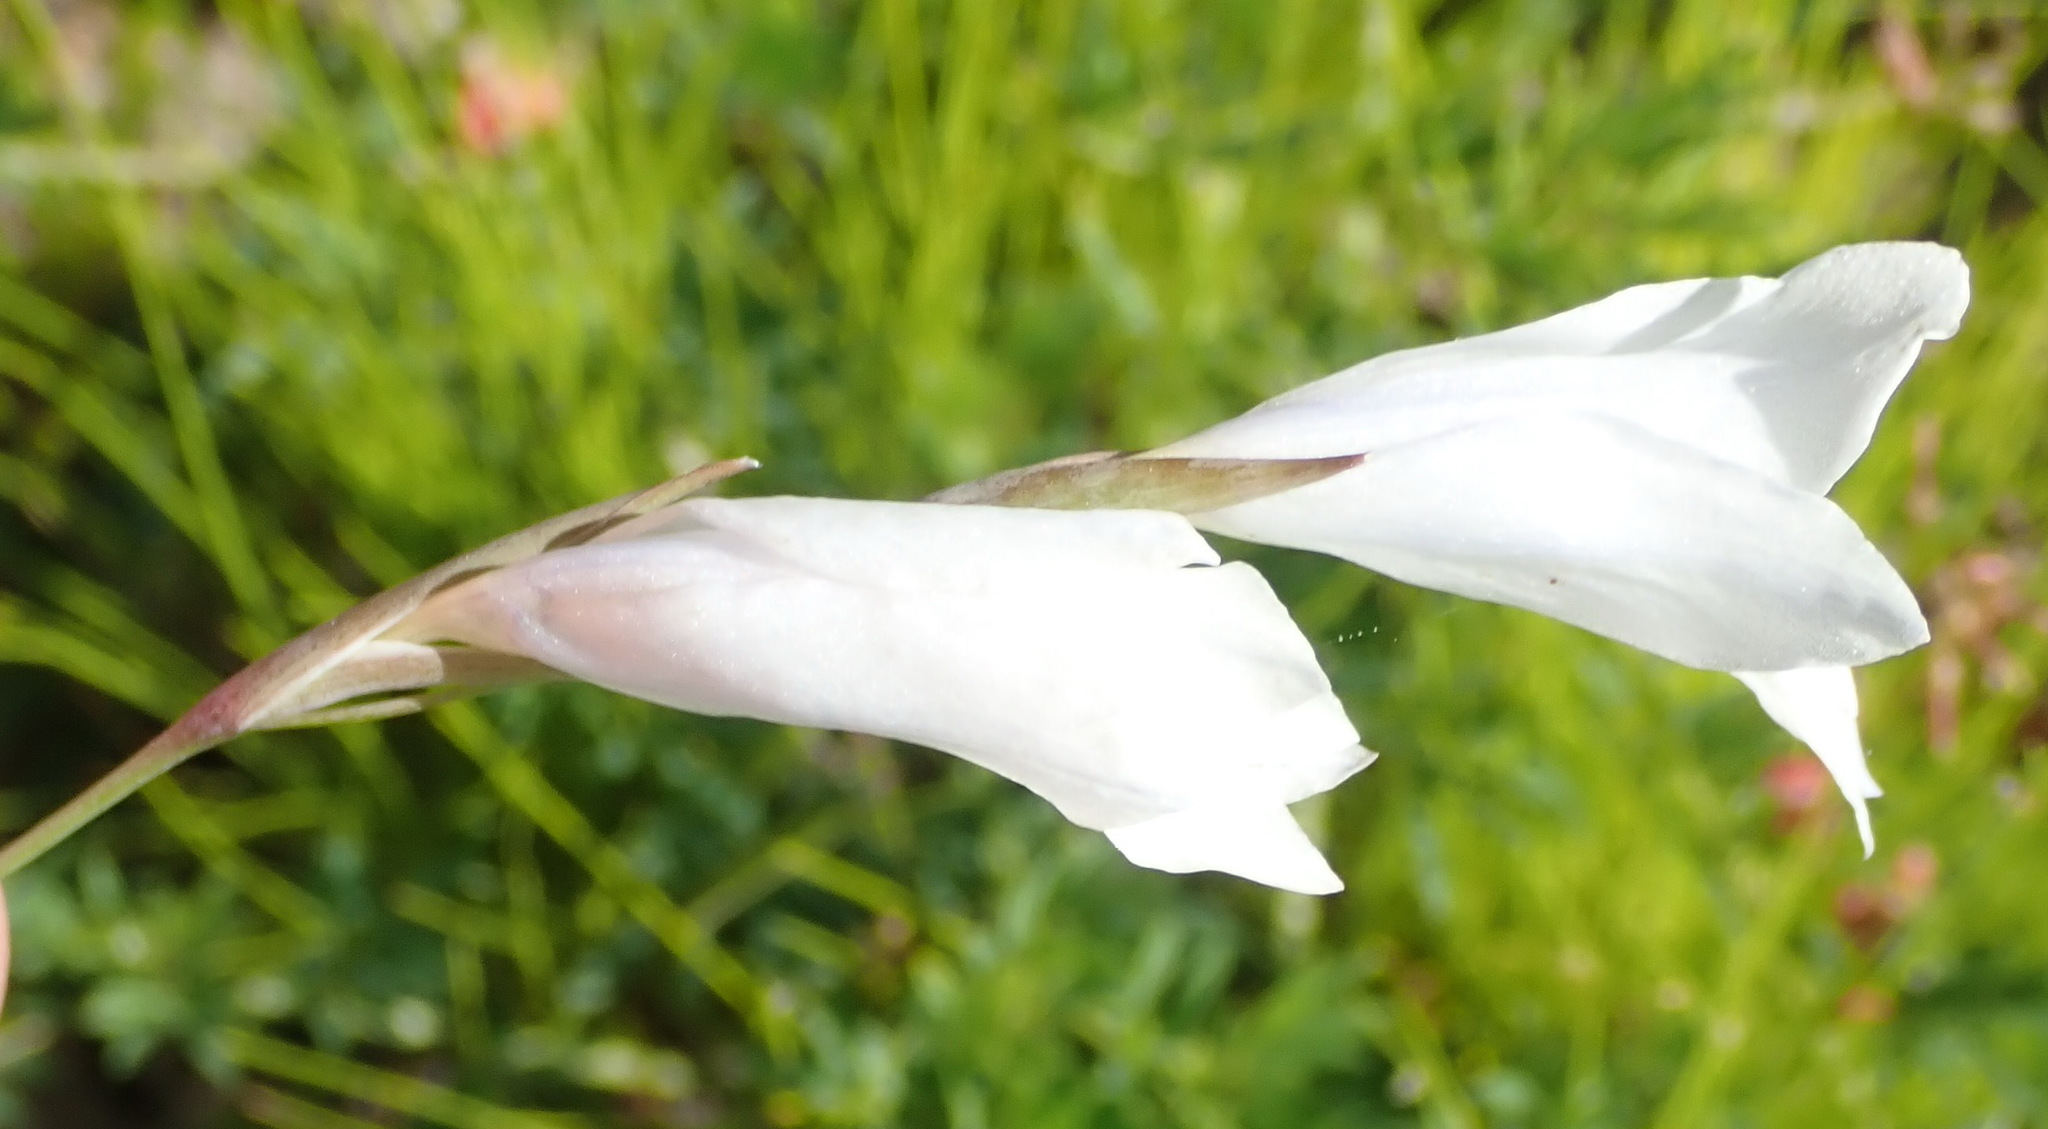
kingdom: Plantae
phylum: Tracheophyta
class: Liliopsida
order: Asparagales
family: Iridaceae
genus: Gladiolus
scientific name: Gladiolus vaginatus
